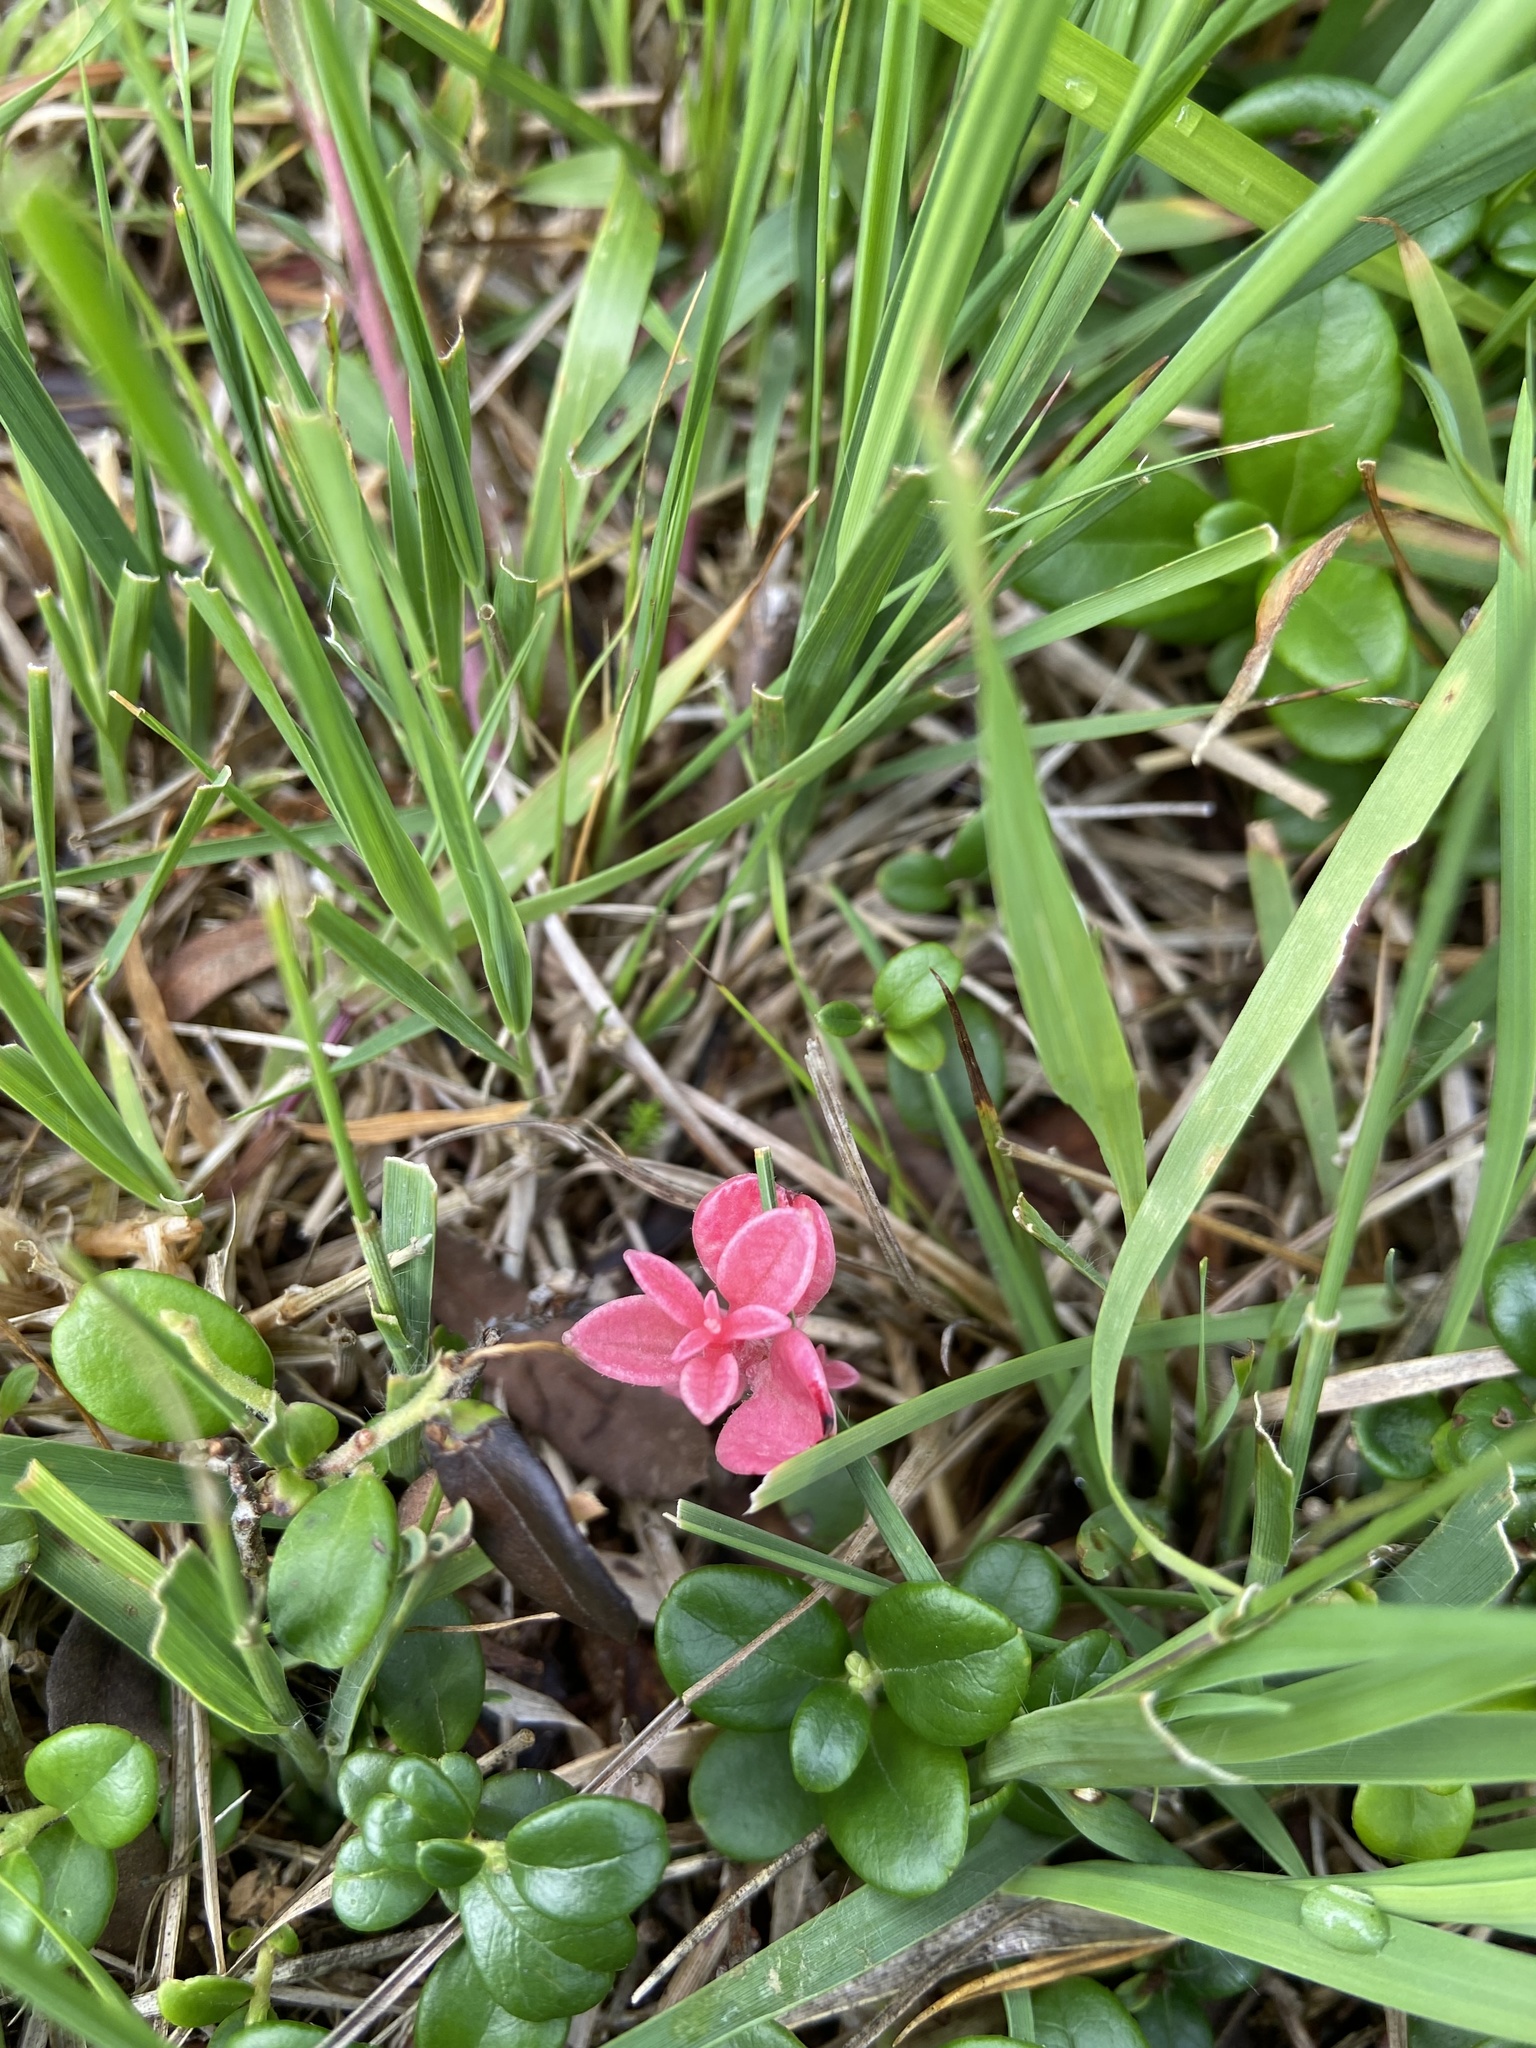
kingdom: Fungi
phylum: Basidiomycota
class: Exobasidiomycetes
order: Exobasidiales
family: Exobasidiaceae
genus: Exobasidium
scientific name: Exobasidium vaccinii
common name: Cowberry redleaf
